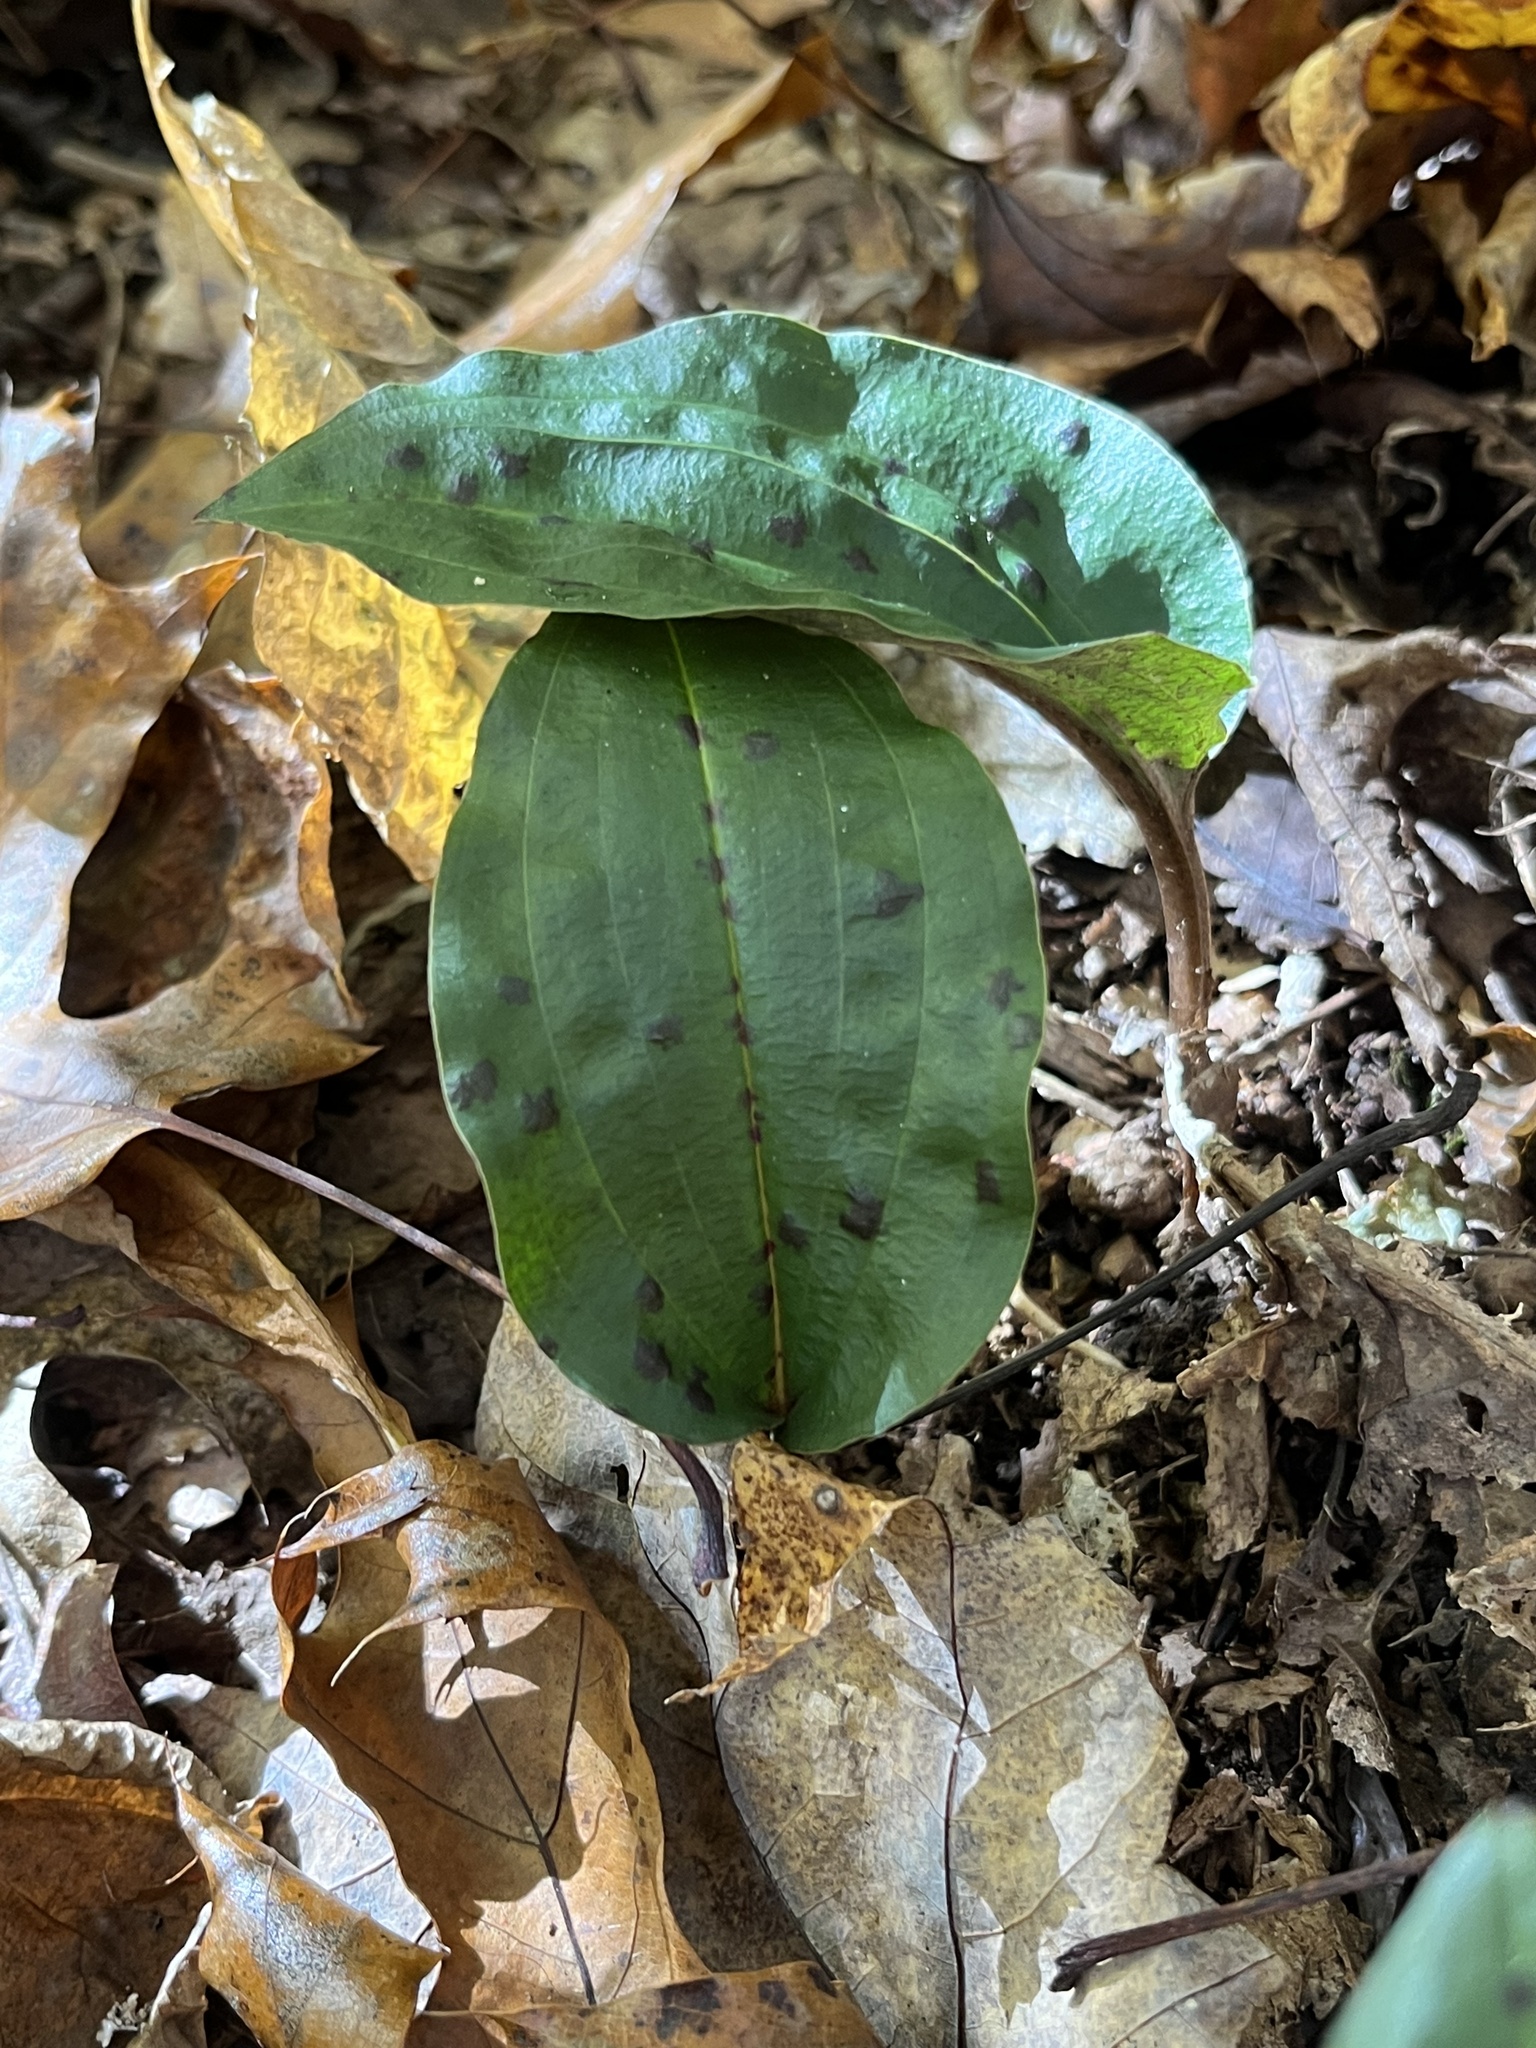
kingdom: Plantae
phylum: Tracheophyta
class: Liliopsida
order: Asparagales
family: Orchidaceae
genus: Tipularia
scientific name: Tipularia discolor
